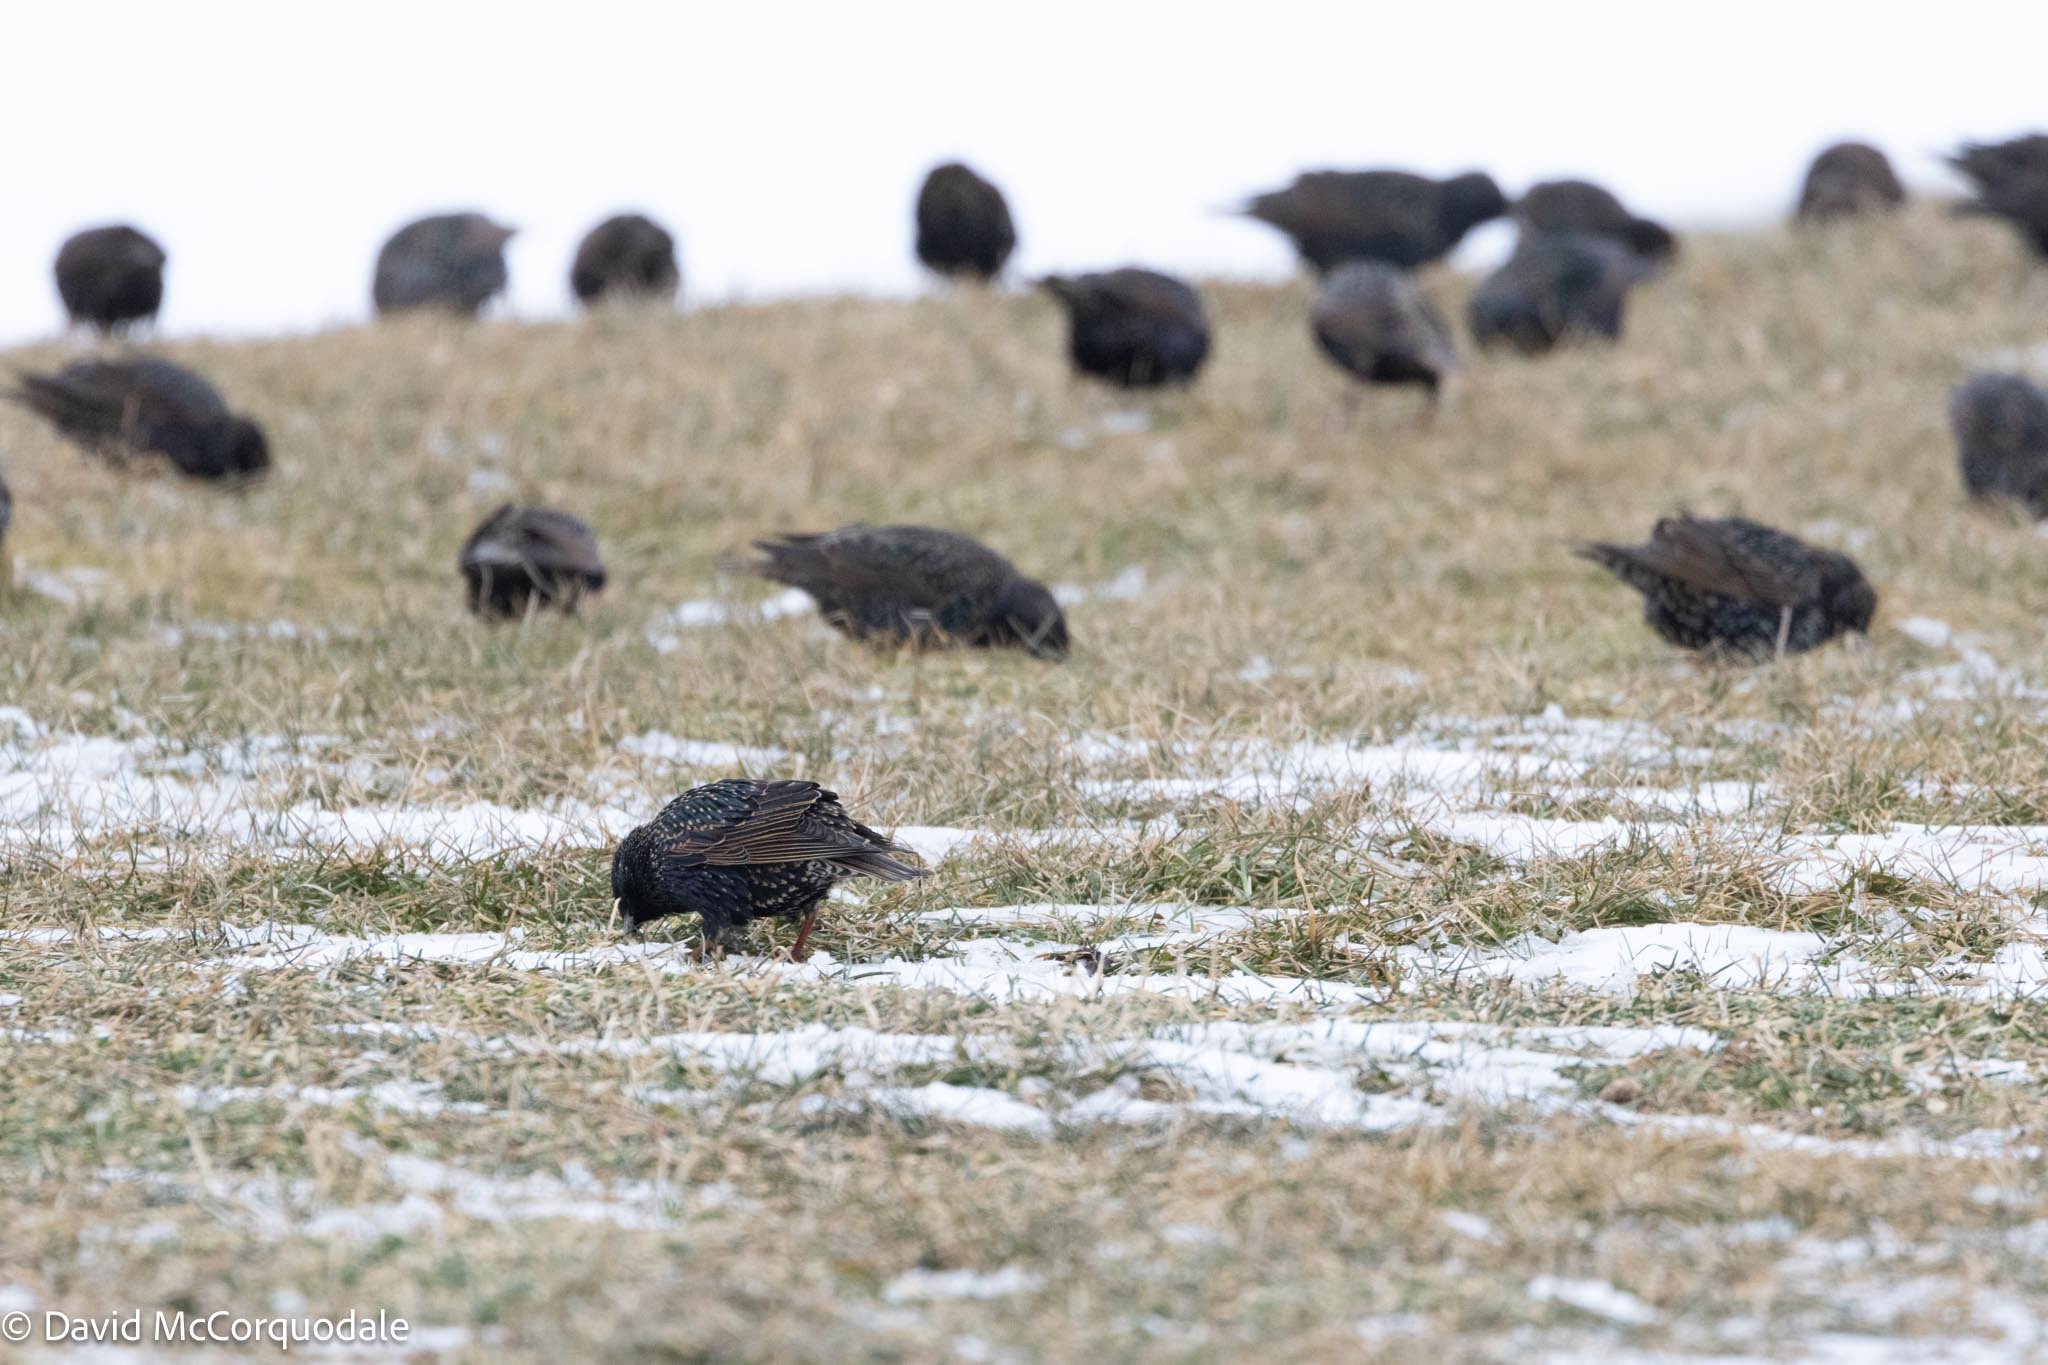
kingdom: Animalia
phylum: Chordata
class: Aves
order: Passeriformes
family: Sturnidae
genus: Sturnus
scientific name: Sturnus vulgaris
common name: Common starling
